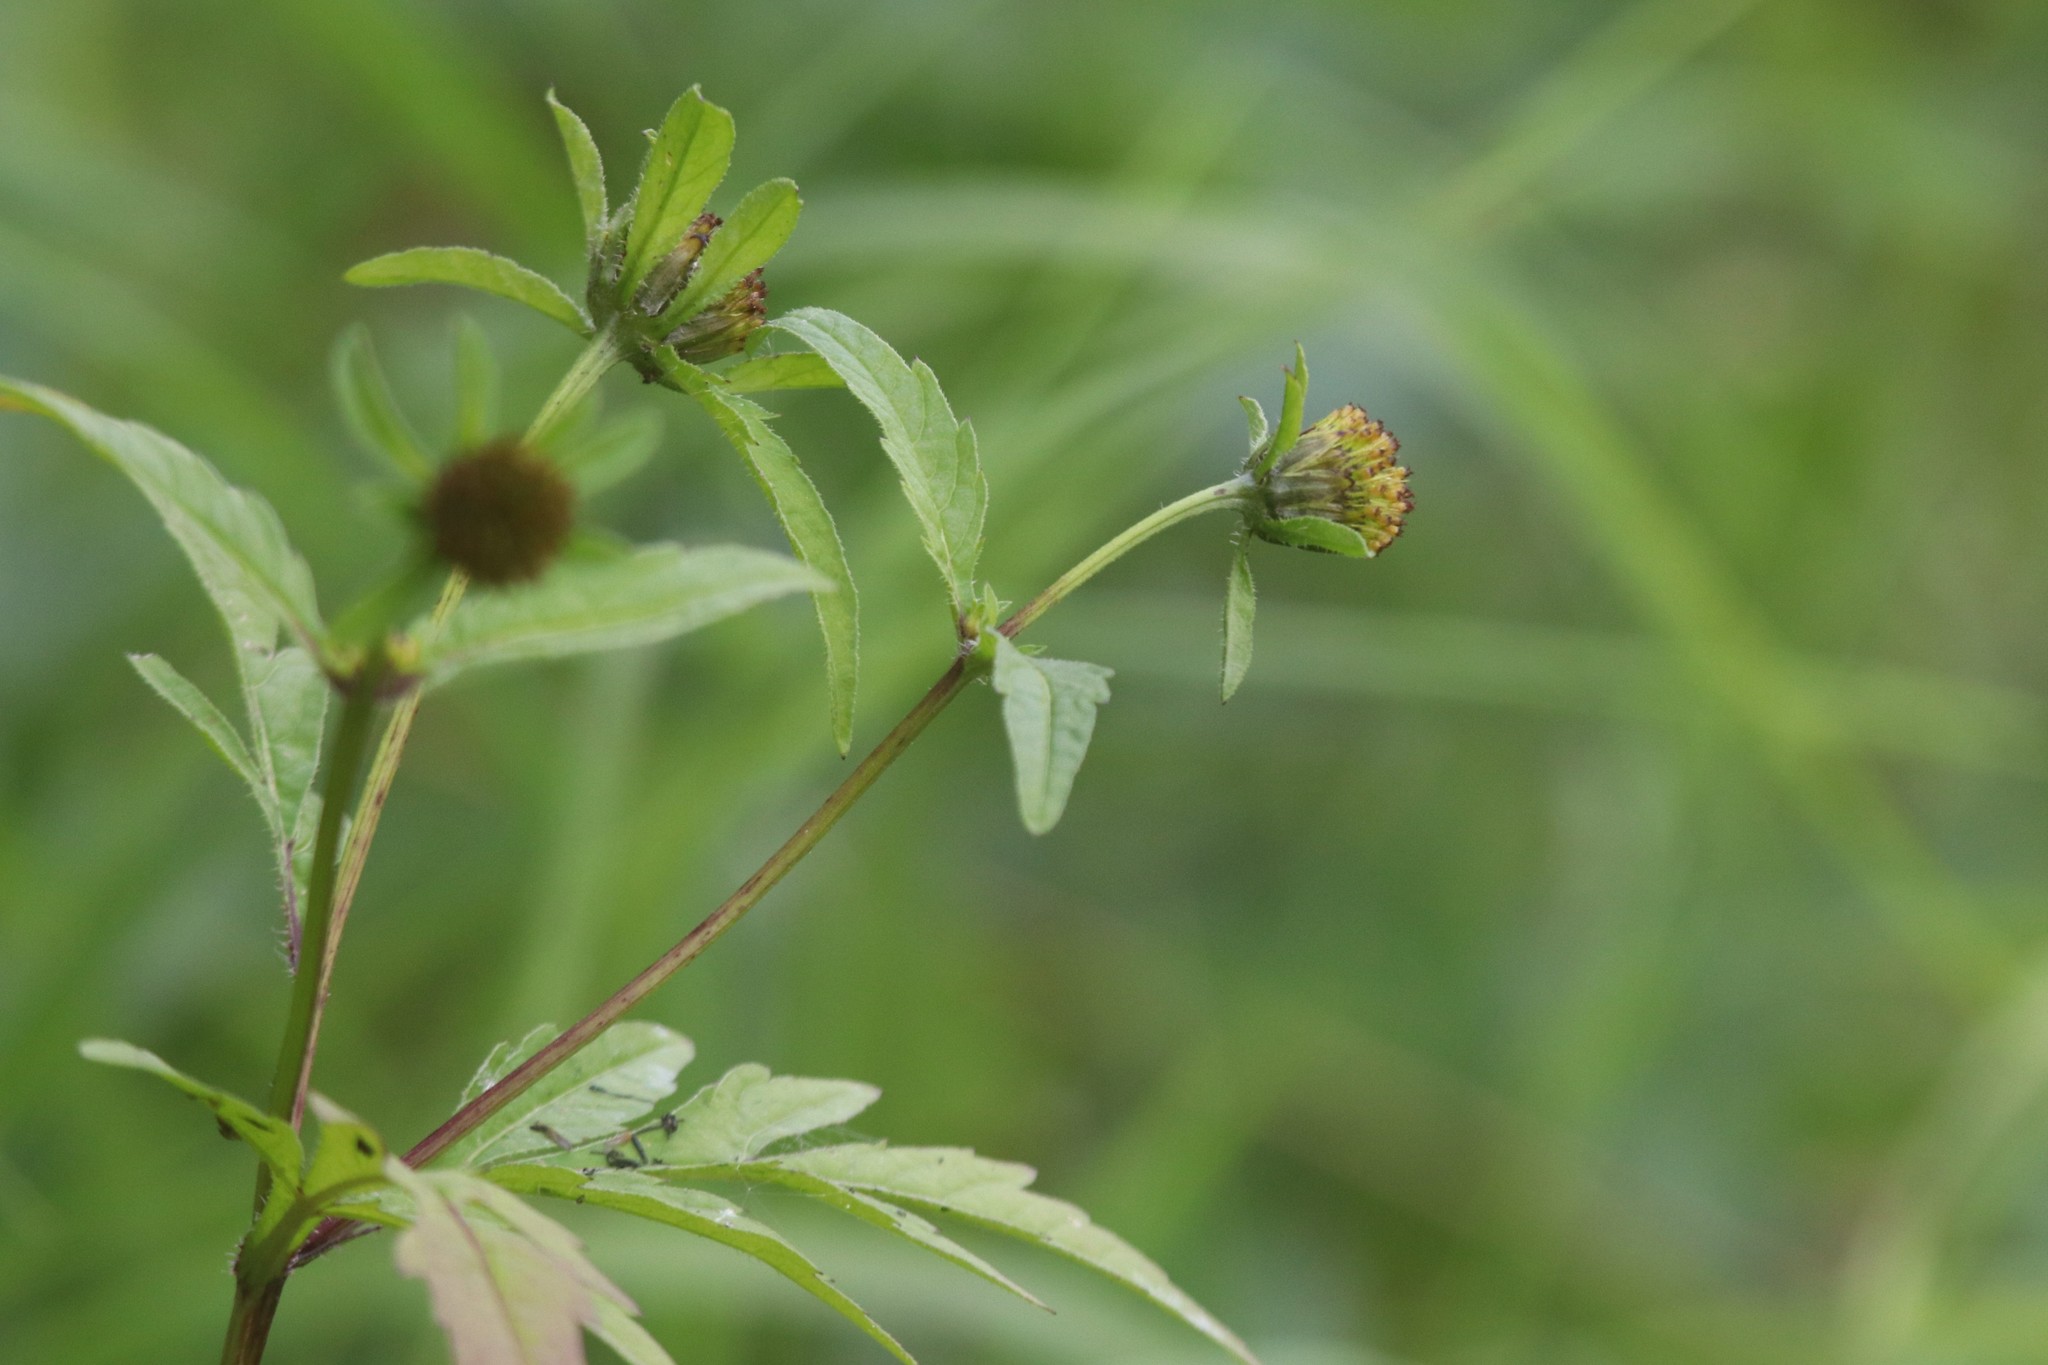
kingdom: Plantae
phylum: Tracheophyta
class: Magnoliopsida
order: Asterales
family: Asteraceae
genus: Bidens
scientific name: Bidens tripartita
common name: Trifid bur-marigold
